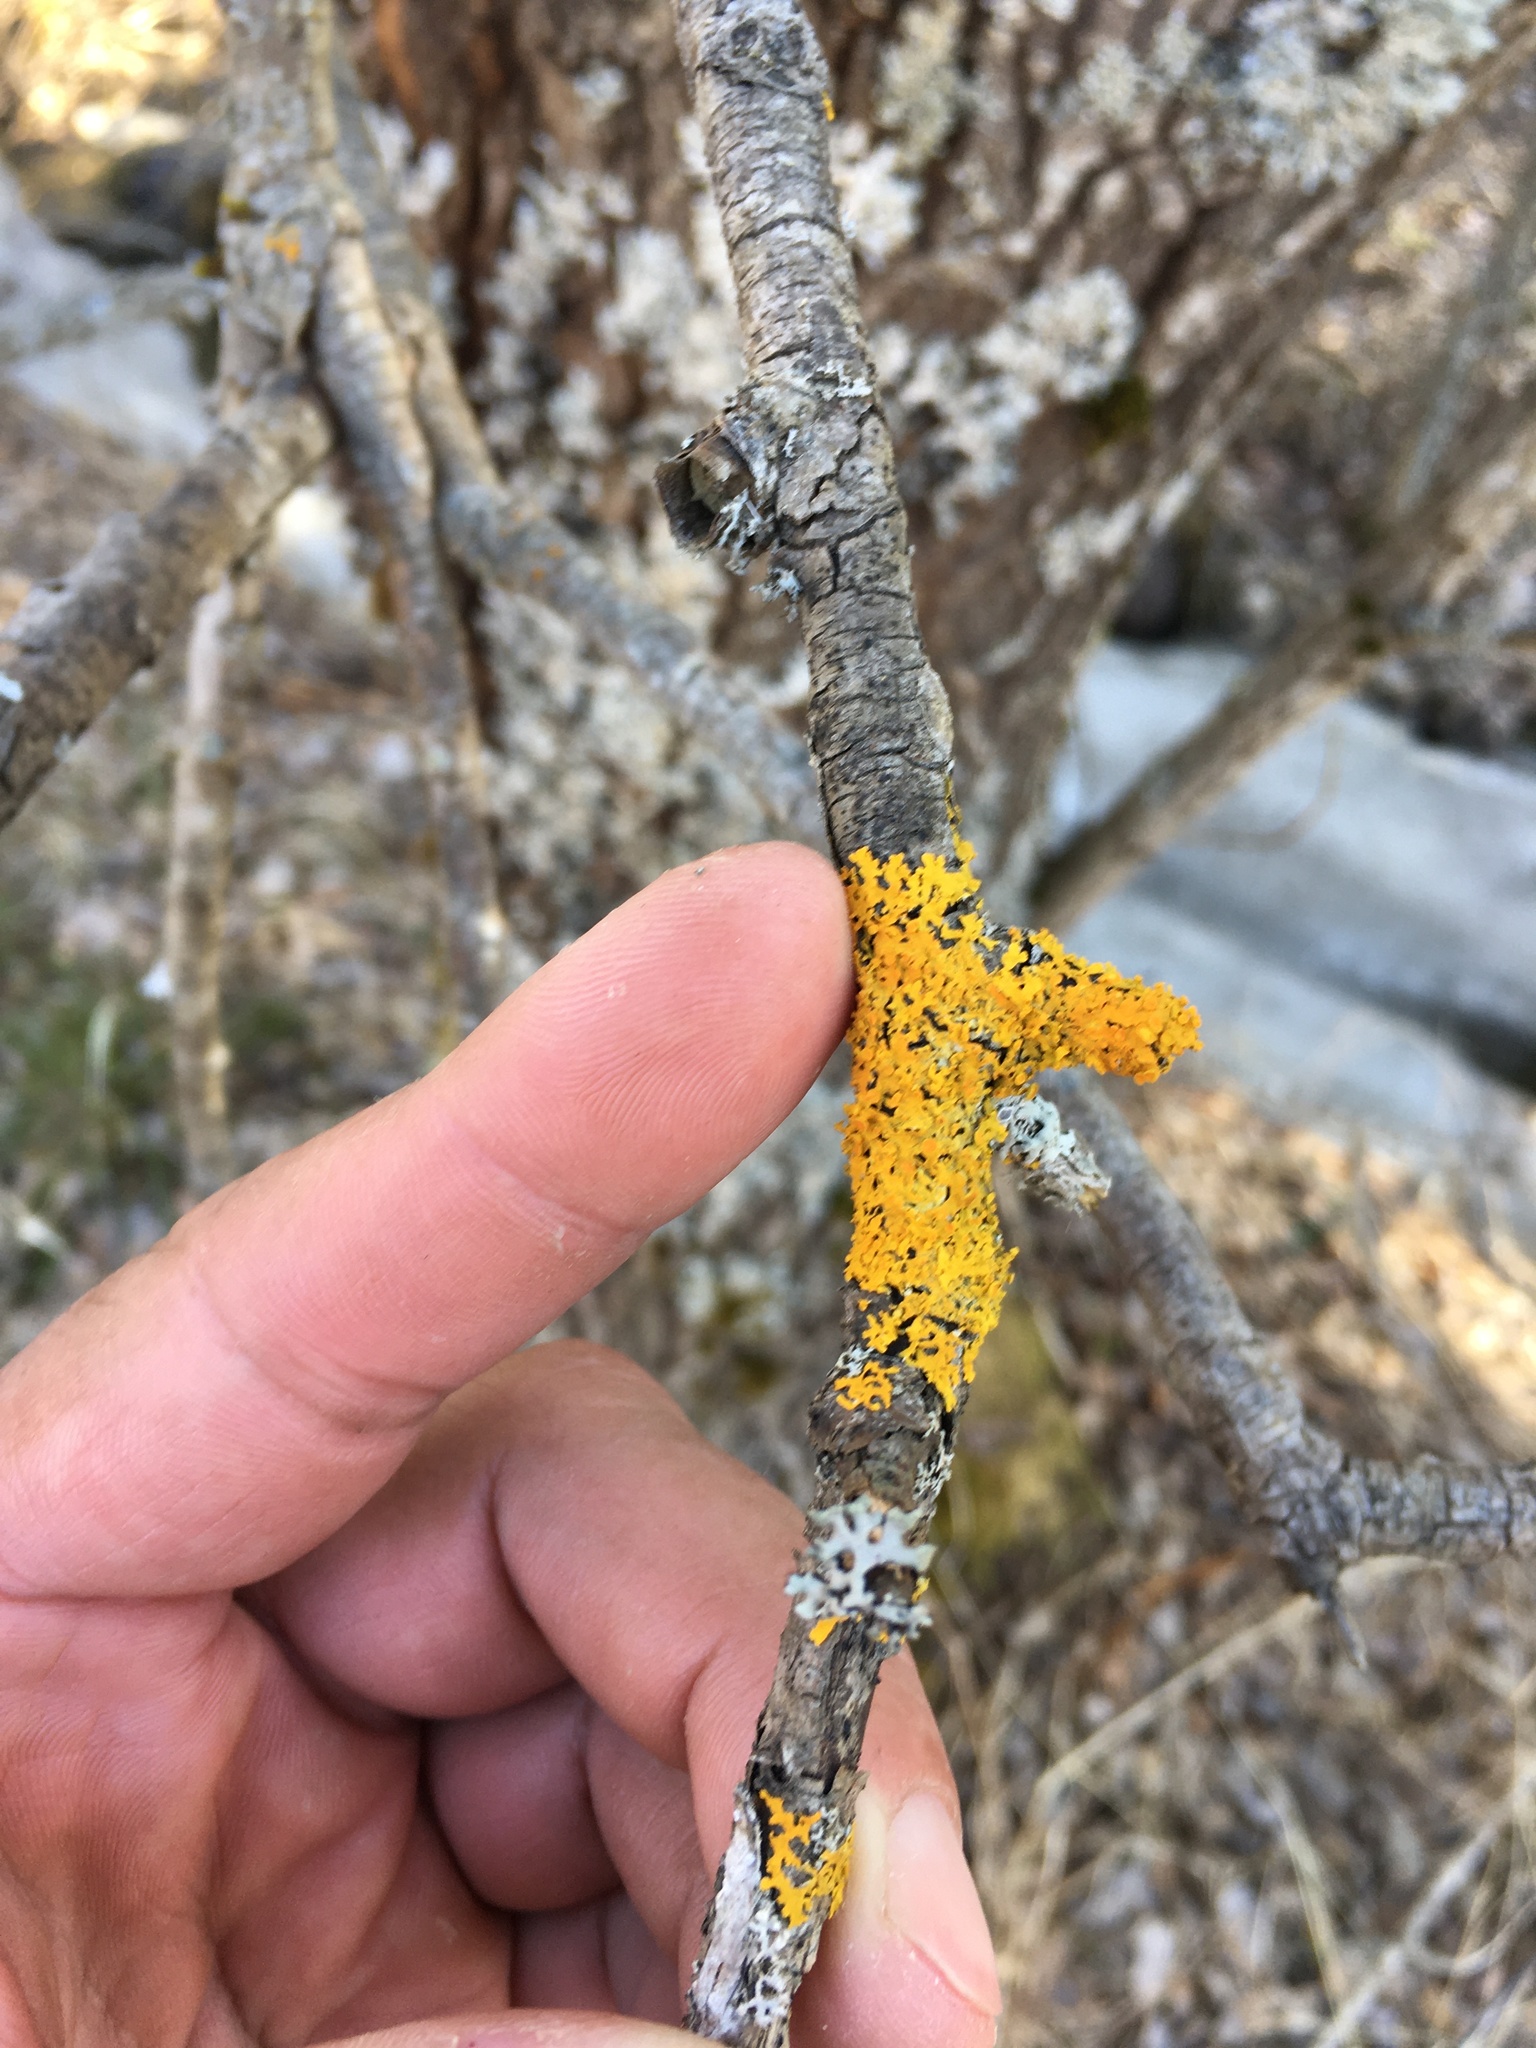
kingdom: Fungi
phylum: Ascomycota
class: Lecanoromycetes
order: Teloschistales
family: Teloschistaceae
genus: Xanthoria
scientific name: Xanthoria parietina
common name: Common orange lichen
